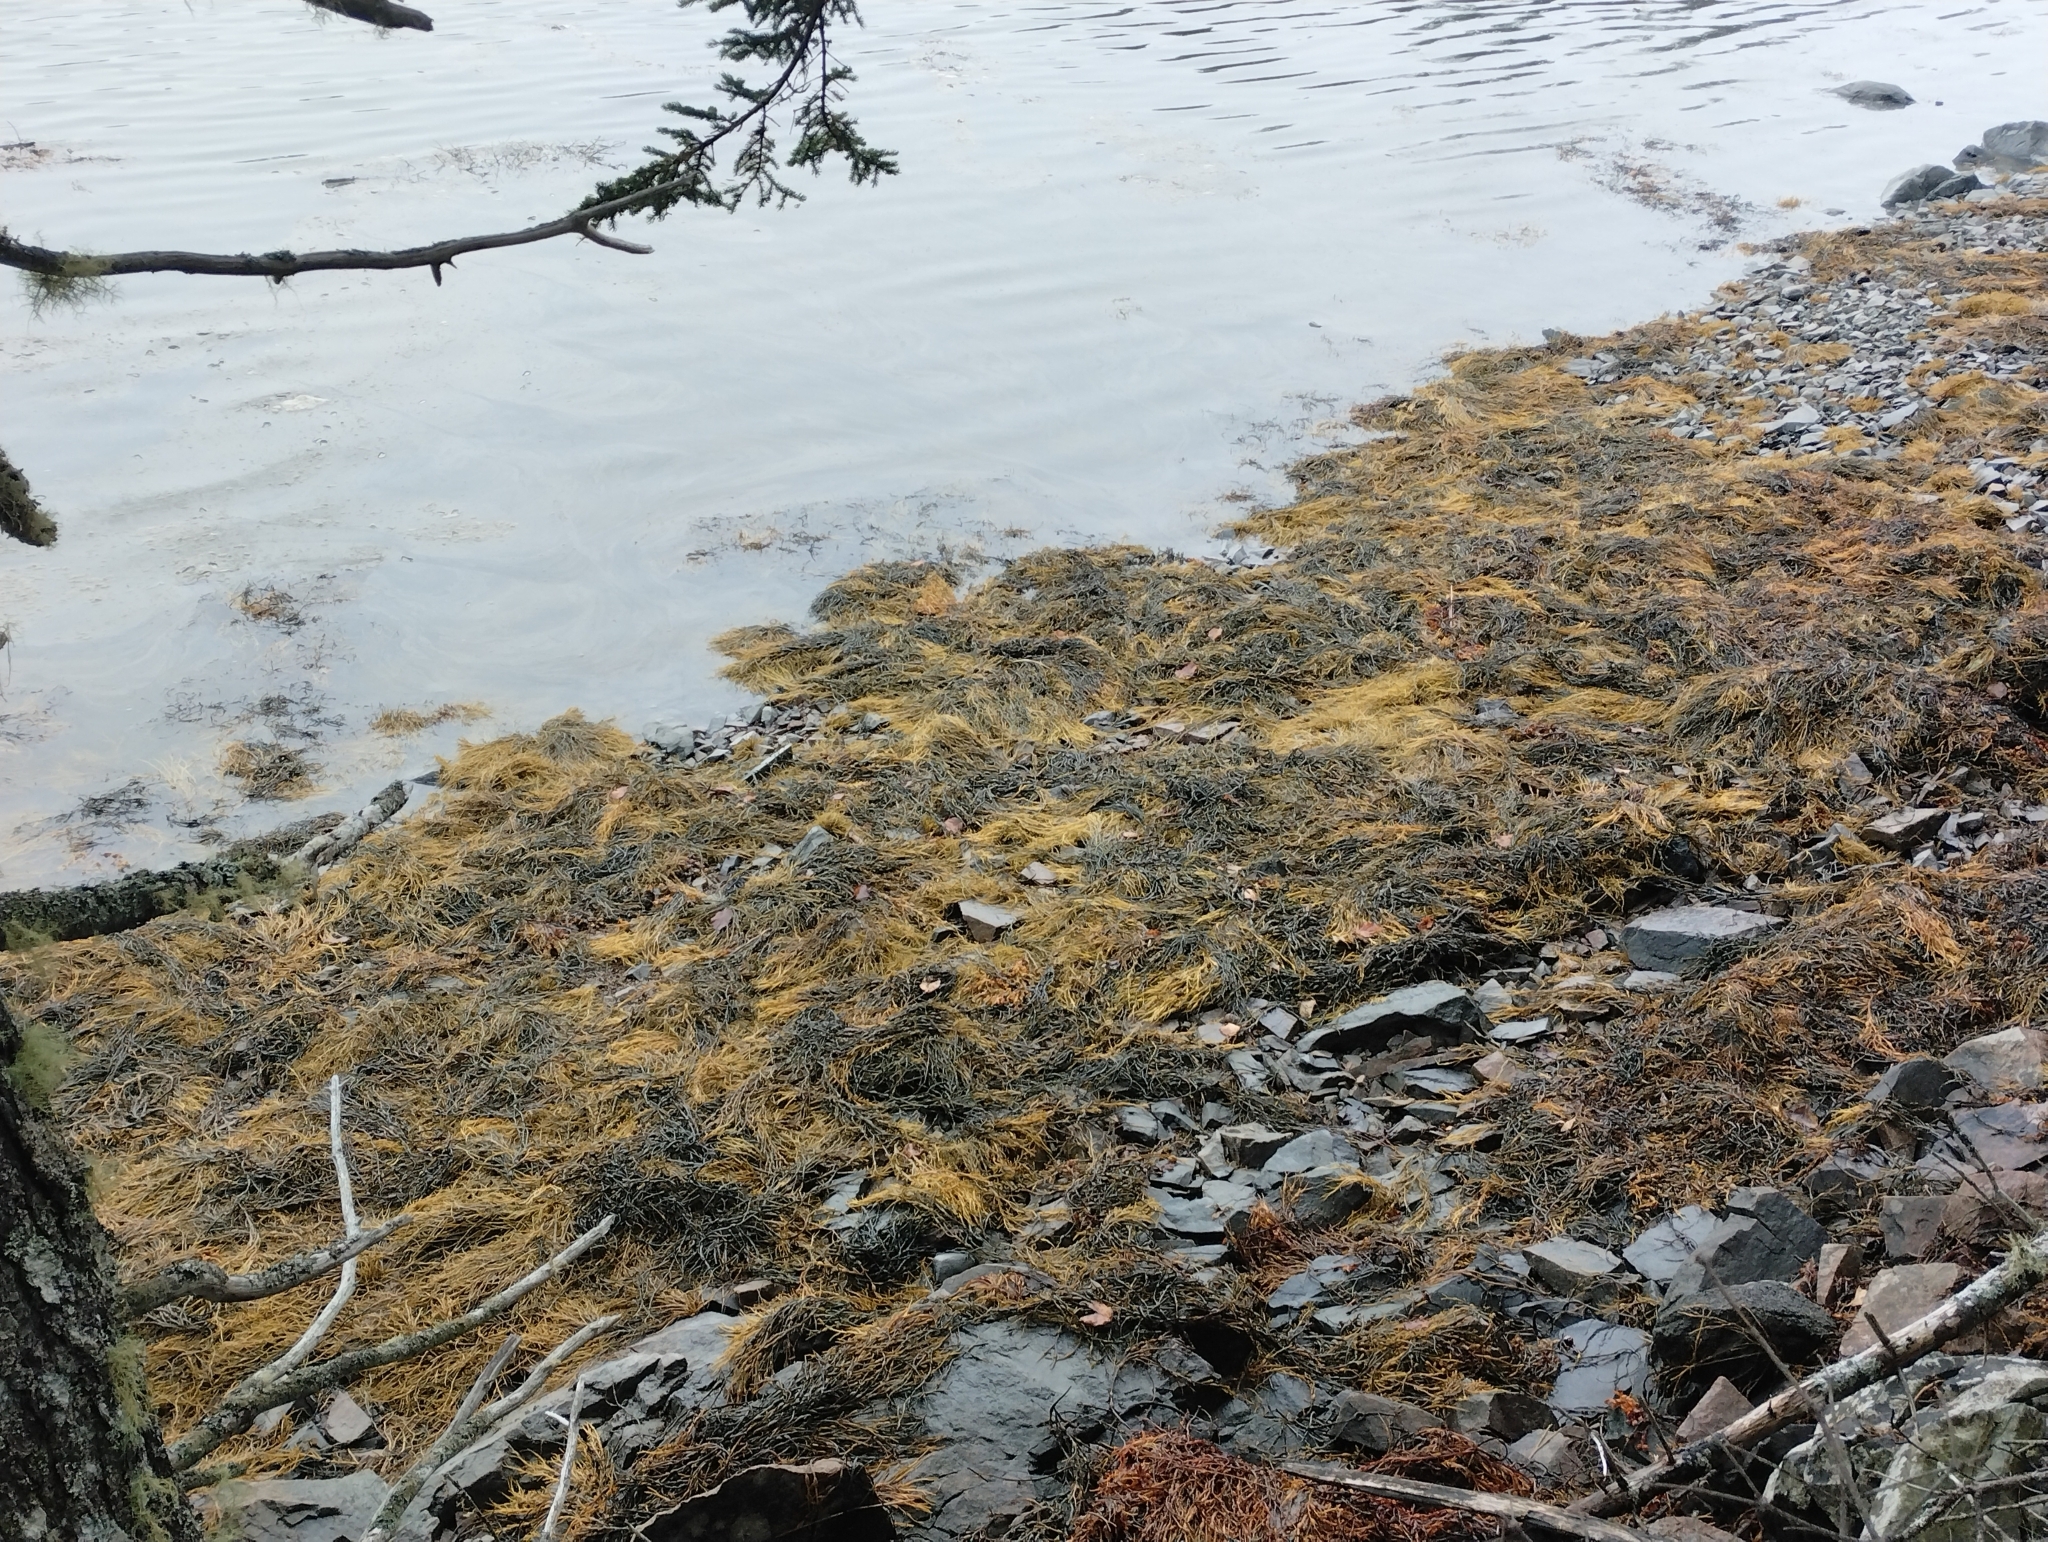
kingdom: Chromista
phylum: Ochrophyta
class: Phaeophyceae
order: Fucales
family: Fucaceae
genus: Ascophyllum
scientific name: Ascophyllum nodosum
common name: Knotted wrack
